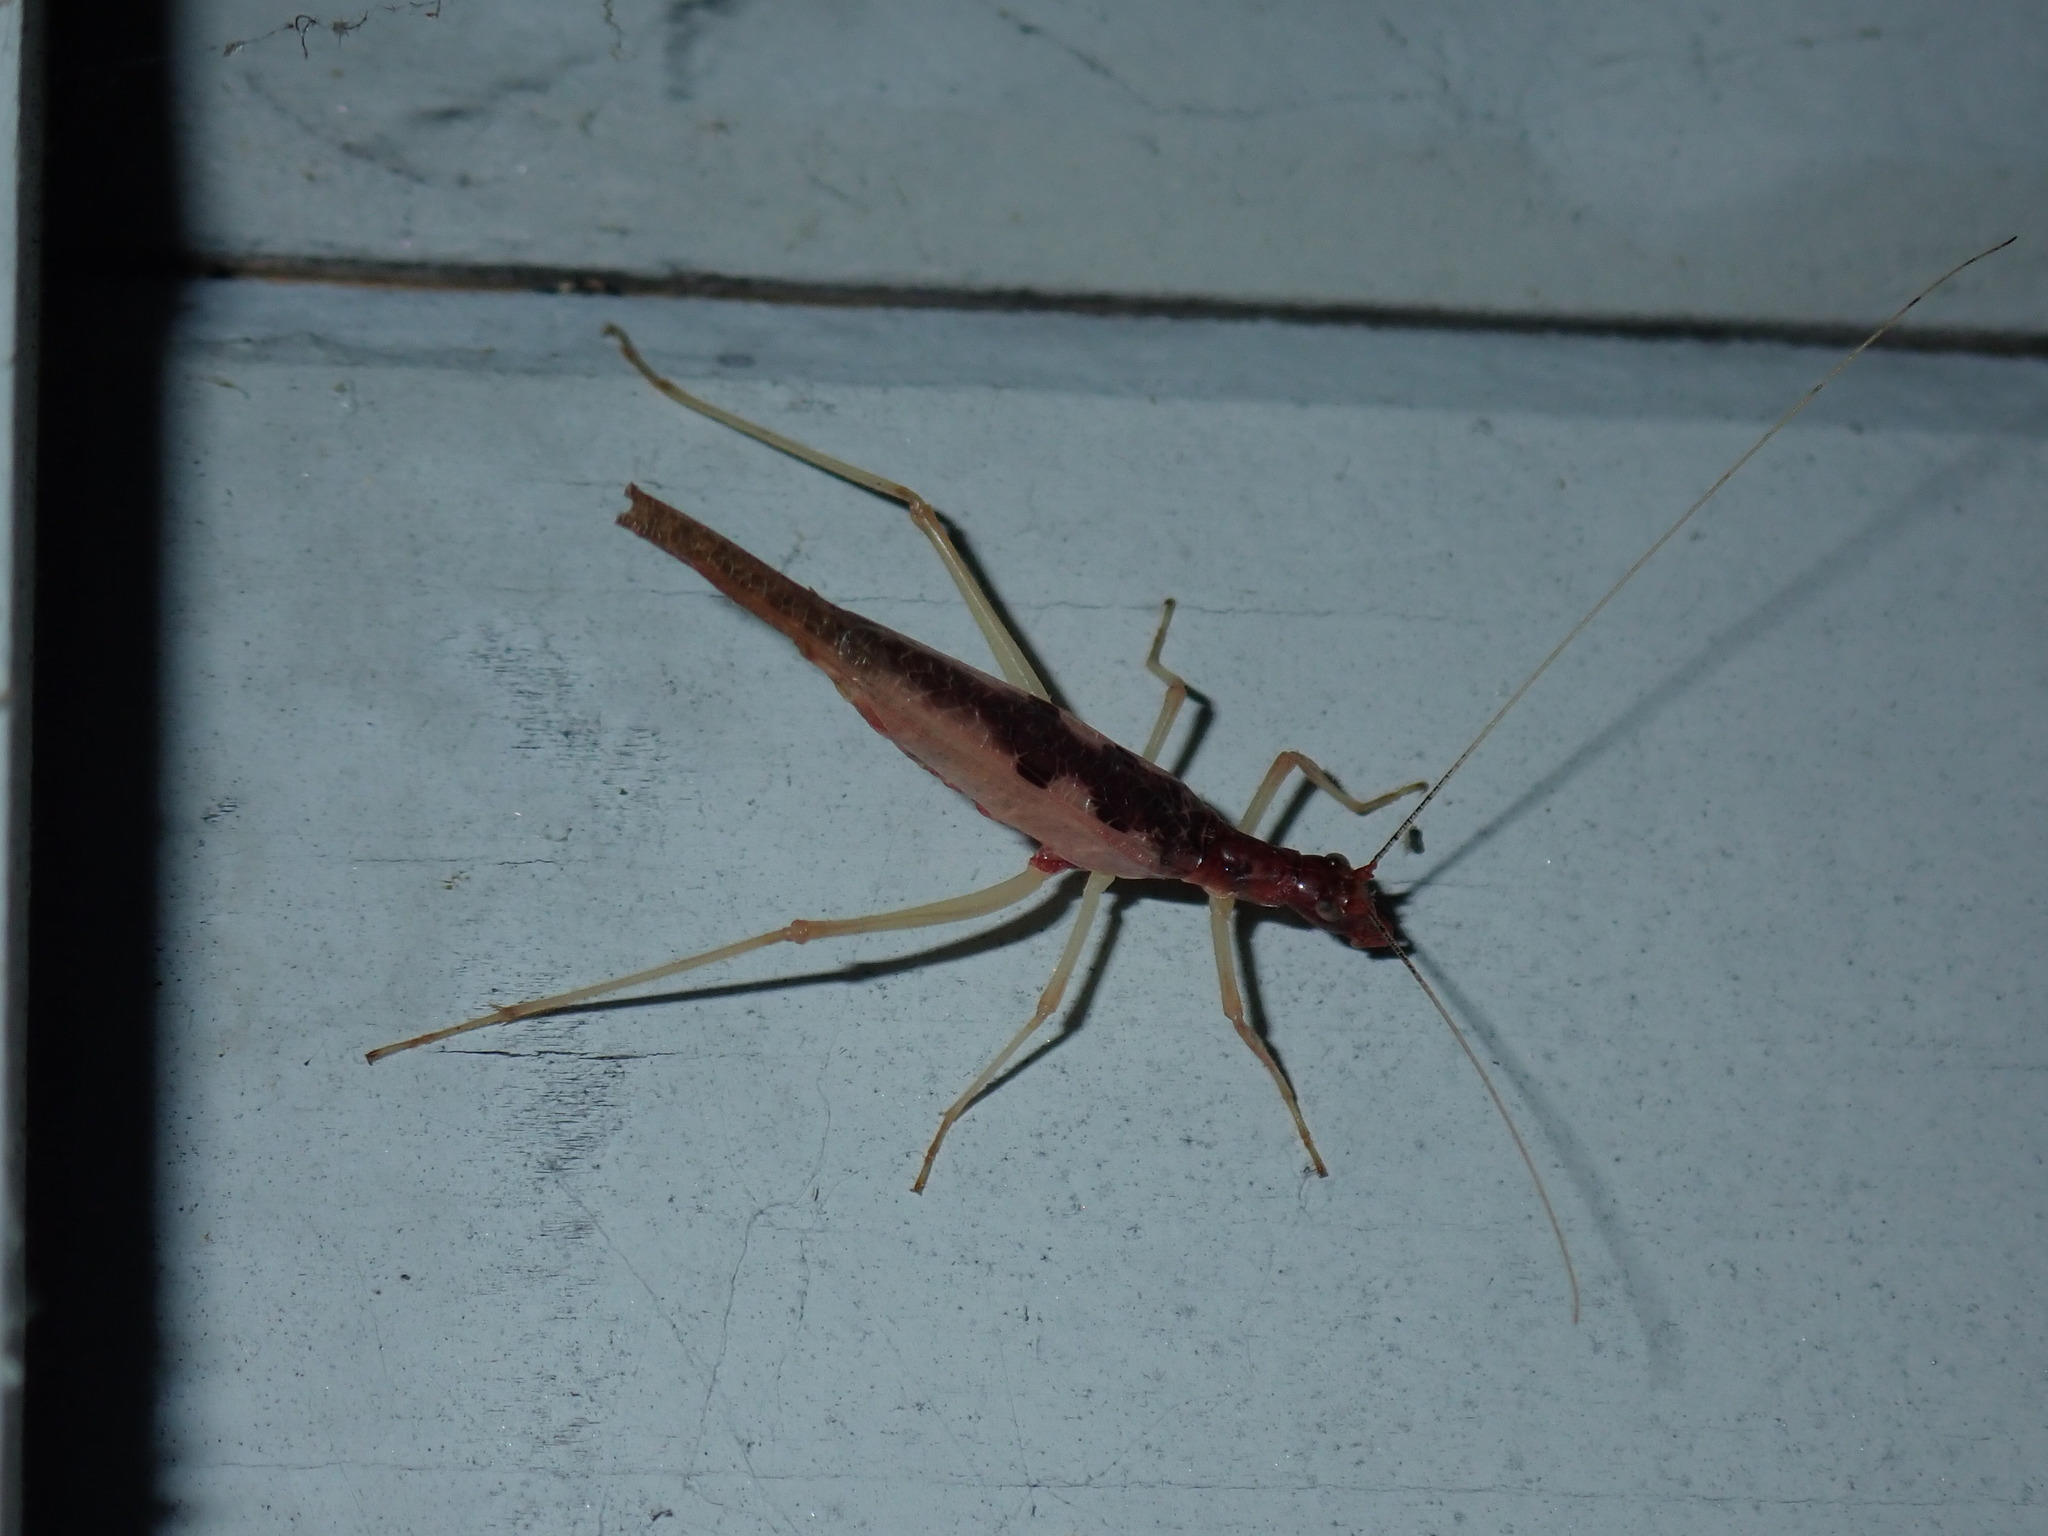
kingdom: Animalia
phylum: Arthropoda
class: Insecta
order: Orthoptera
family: Gryllidae
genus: Neoxabea
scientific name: Neoxabea bipunctata
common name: Two-spotted tree cricket
